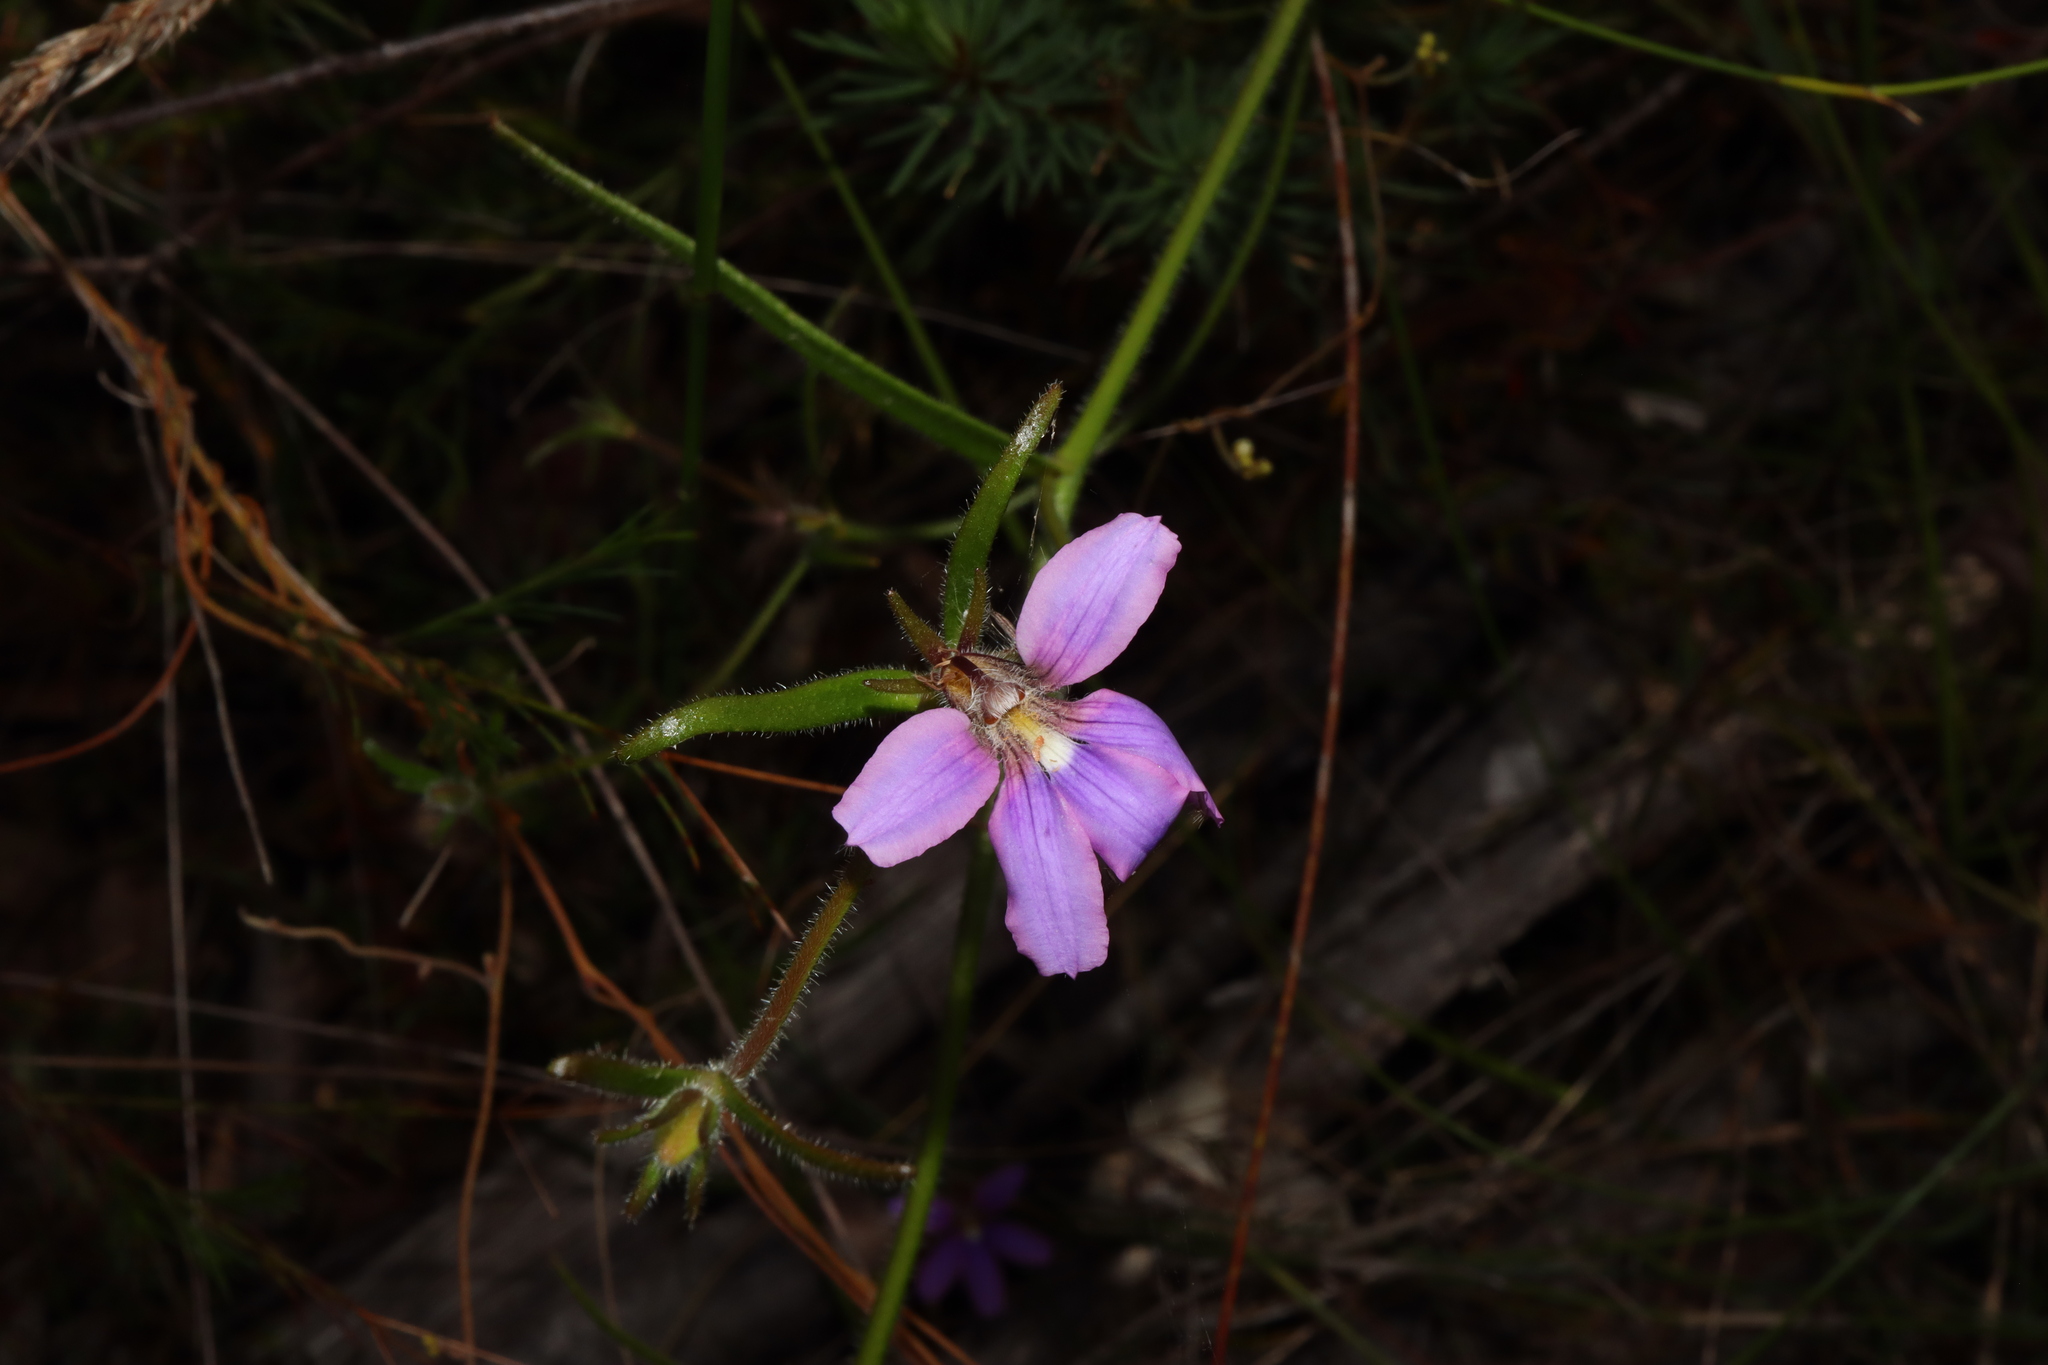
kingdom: Plantae
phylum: Tracheophyta
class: Magnoliopsida
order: Asterales
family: Goodeniaceae
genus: Scaevola
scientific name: Scaevola ramosissima
